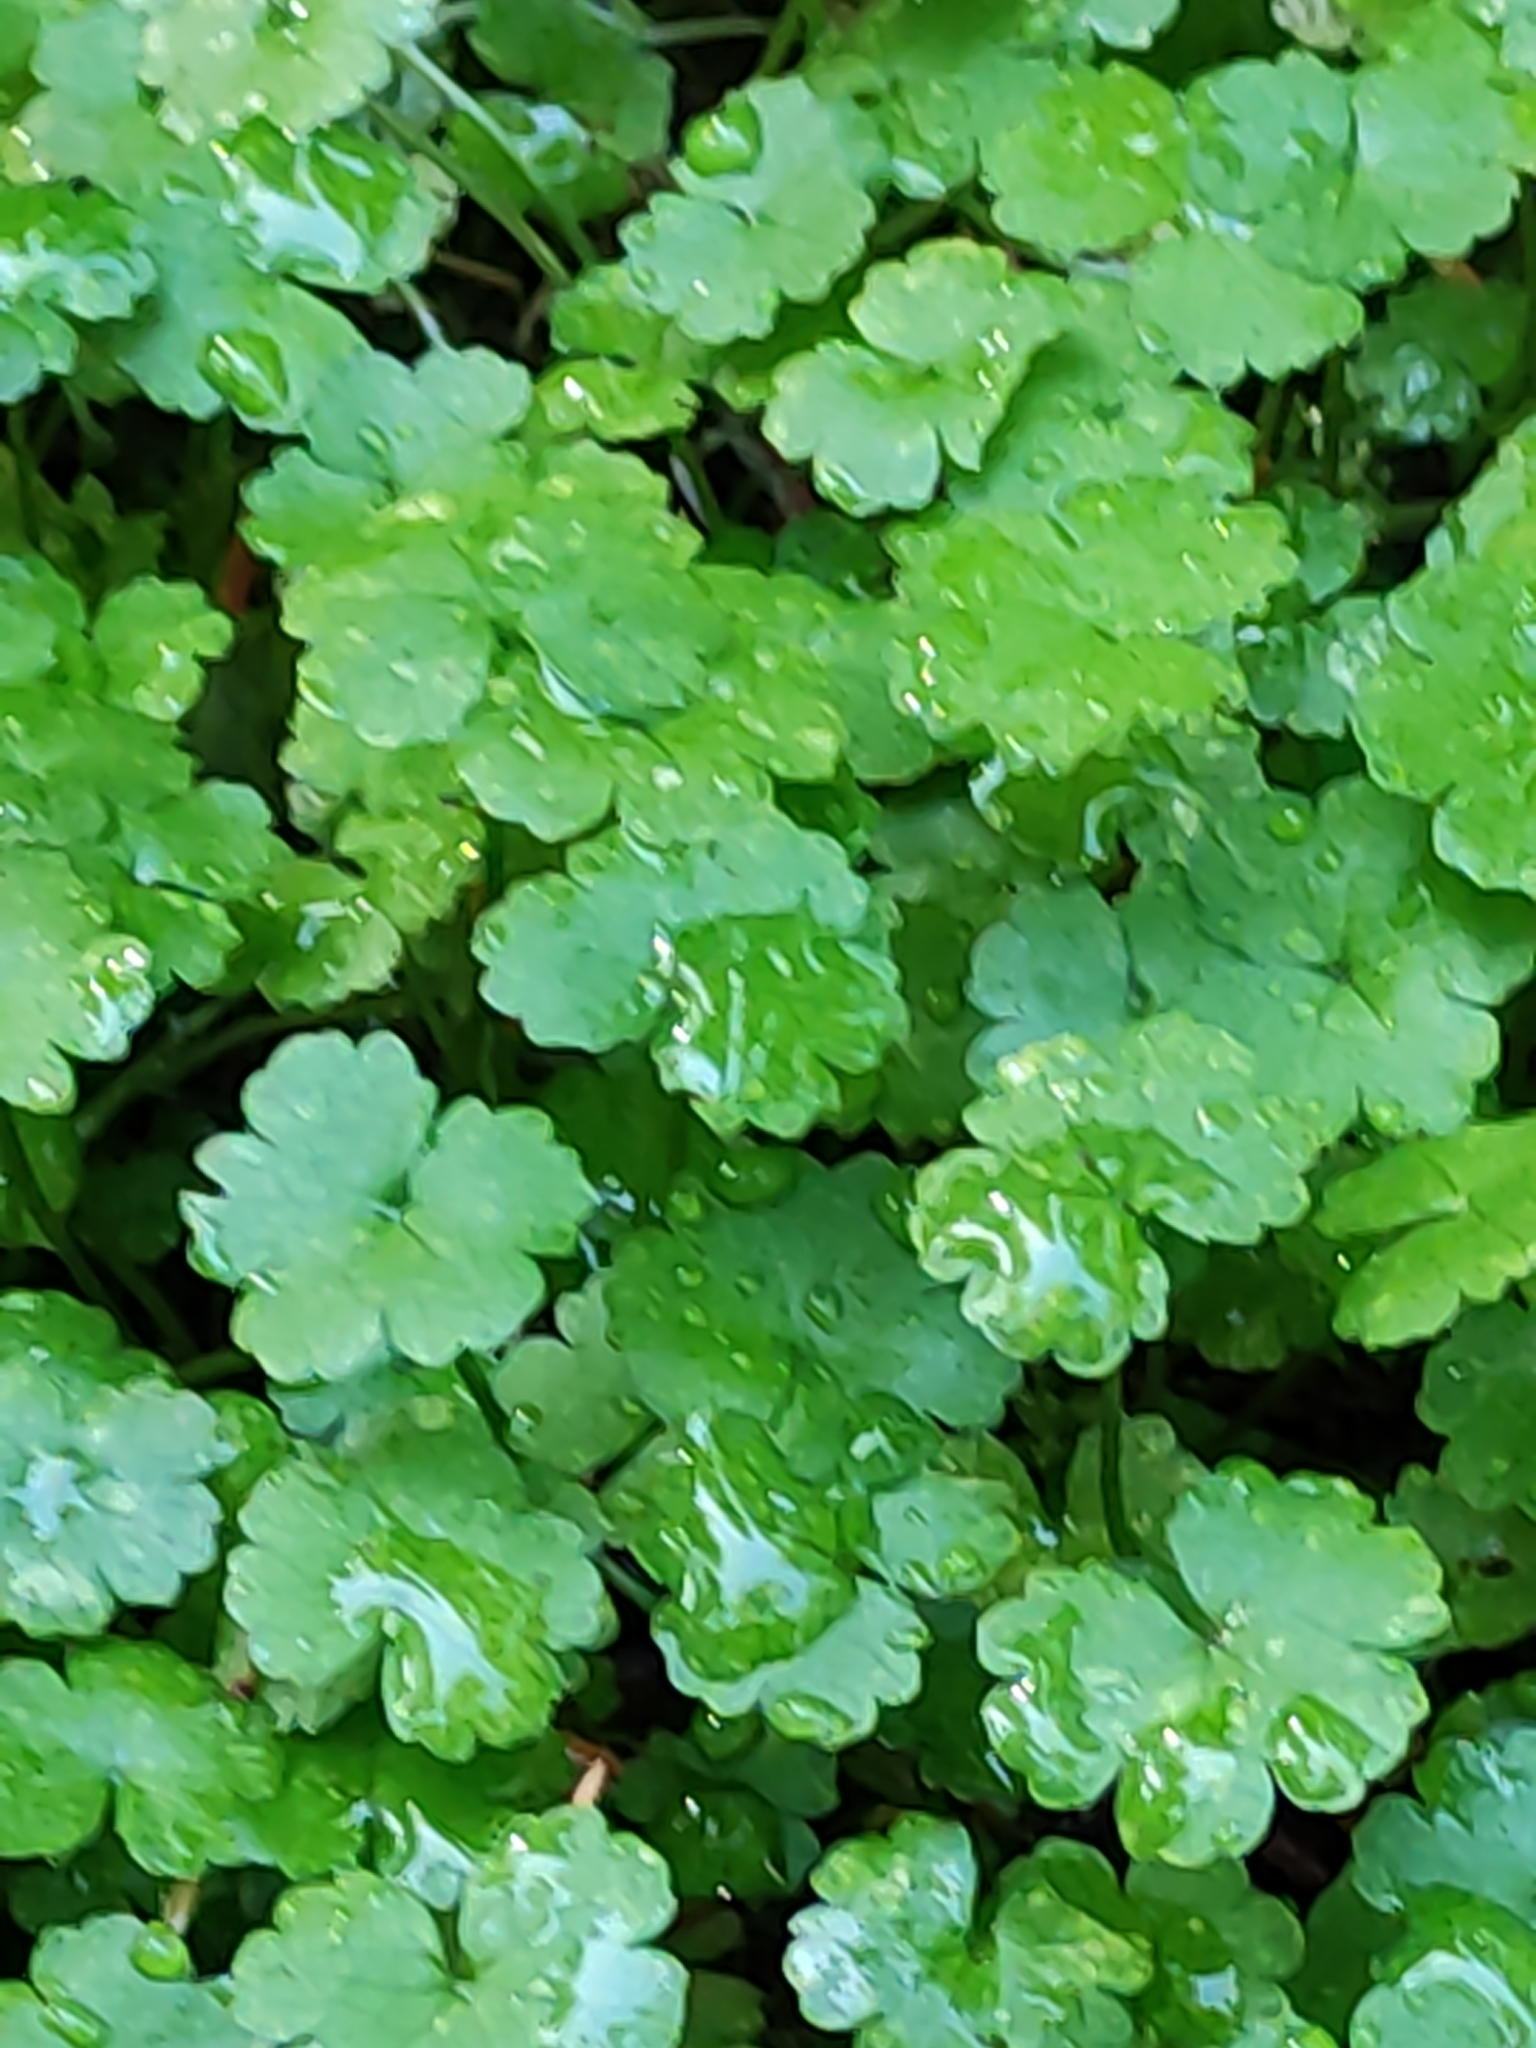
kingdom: Plantae
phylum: Tracheophyta
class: Magnoliopsida
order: Apiales
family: Araliaceae
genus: Hydrocotyle
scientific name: Hydrocotyle heteromeria
